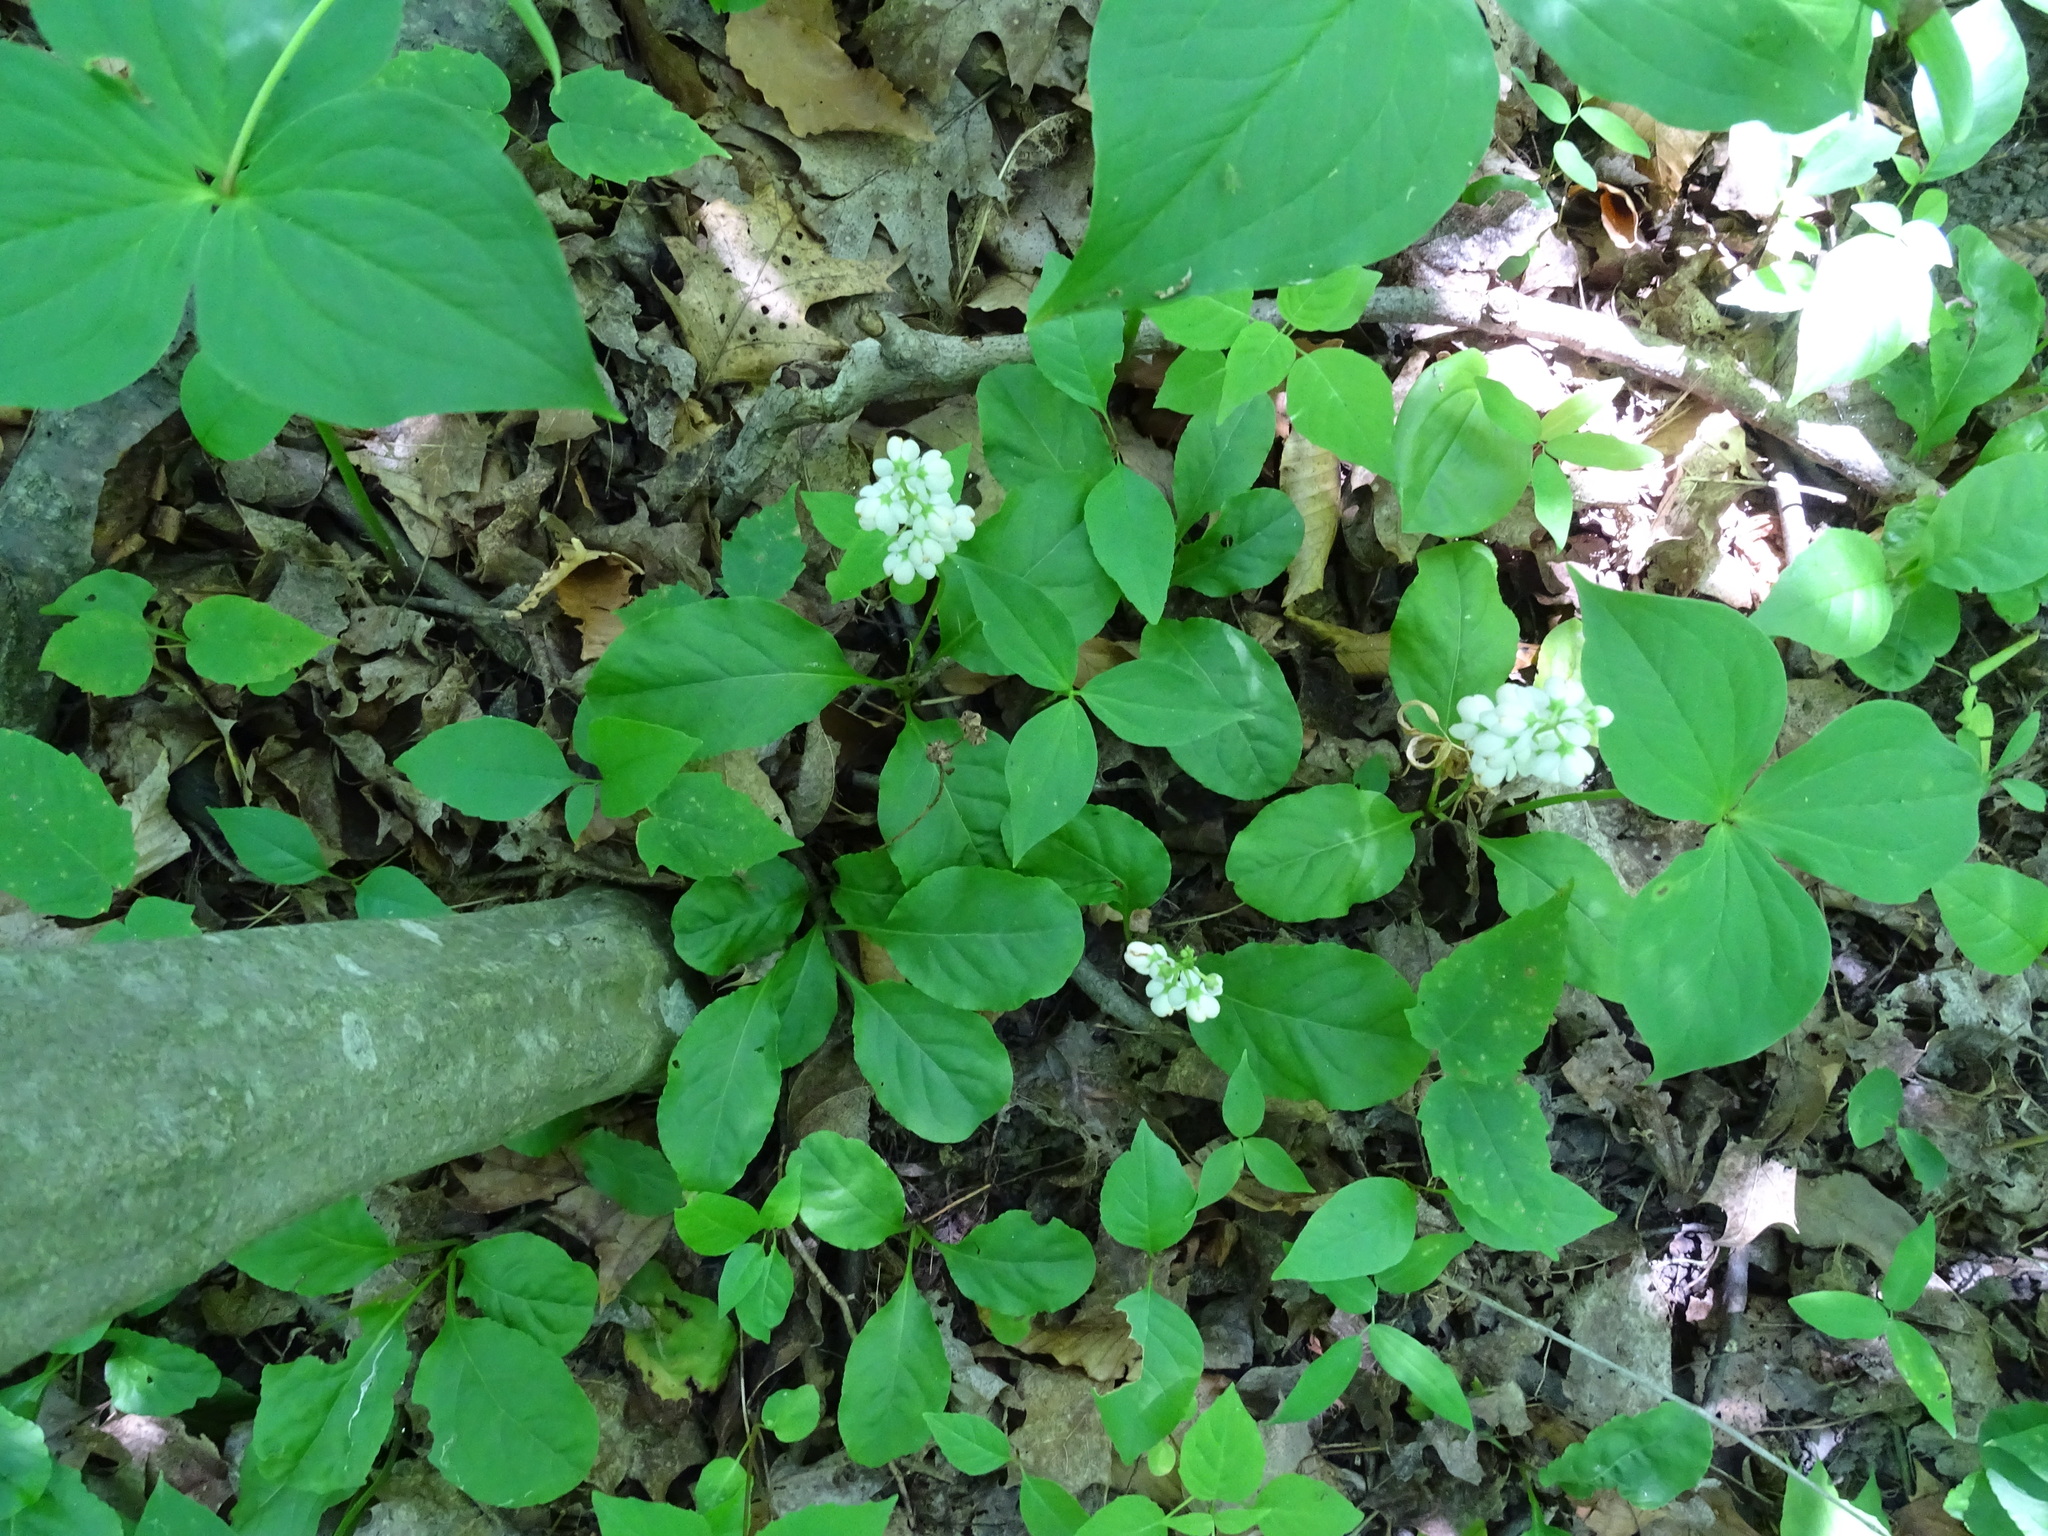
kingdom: Plantae
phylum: Tracheophyta
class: Magnoliopsida
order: Ericales
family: Ericaceae
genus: Pyrola
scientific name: Pyrola elliptica
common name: Shinleaf
